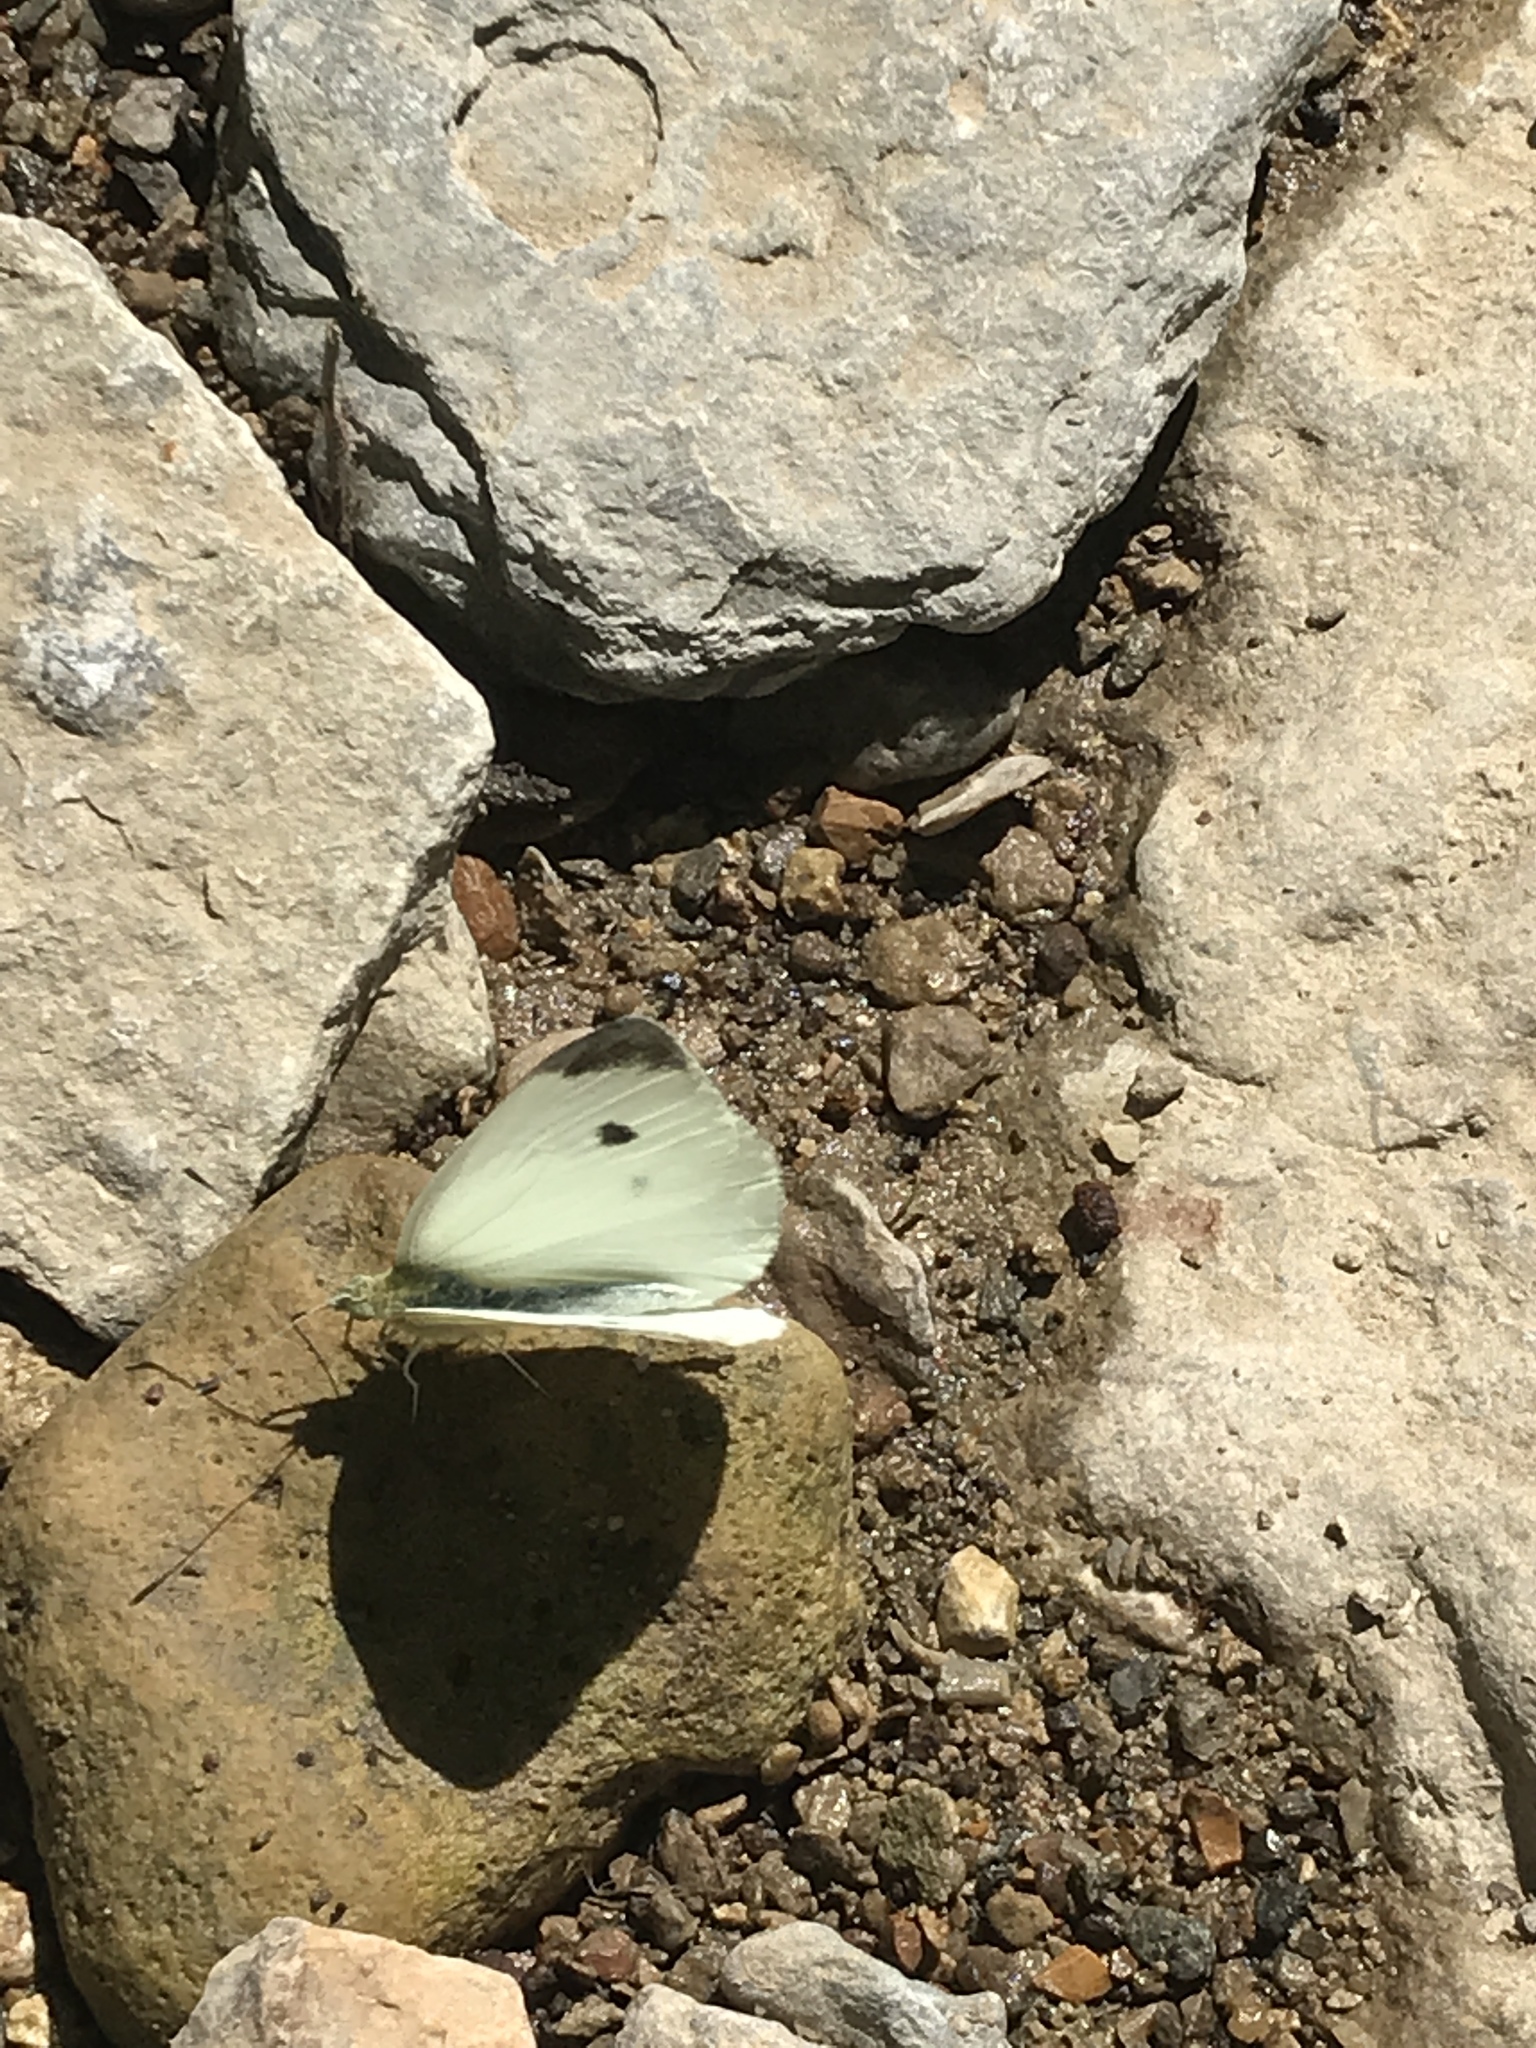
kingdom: Animalia
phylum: Arthropoda
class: Insecta
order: Lepidoptera
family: Pieridae
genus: Pieris
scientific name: Pieris rapae
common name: Small white
